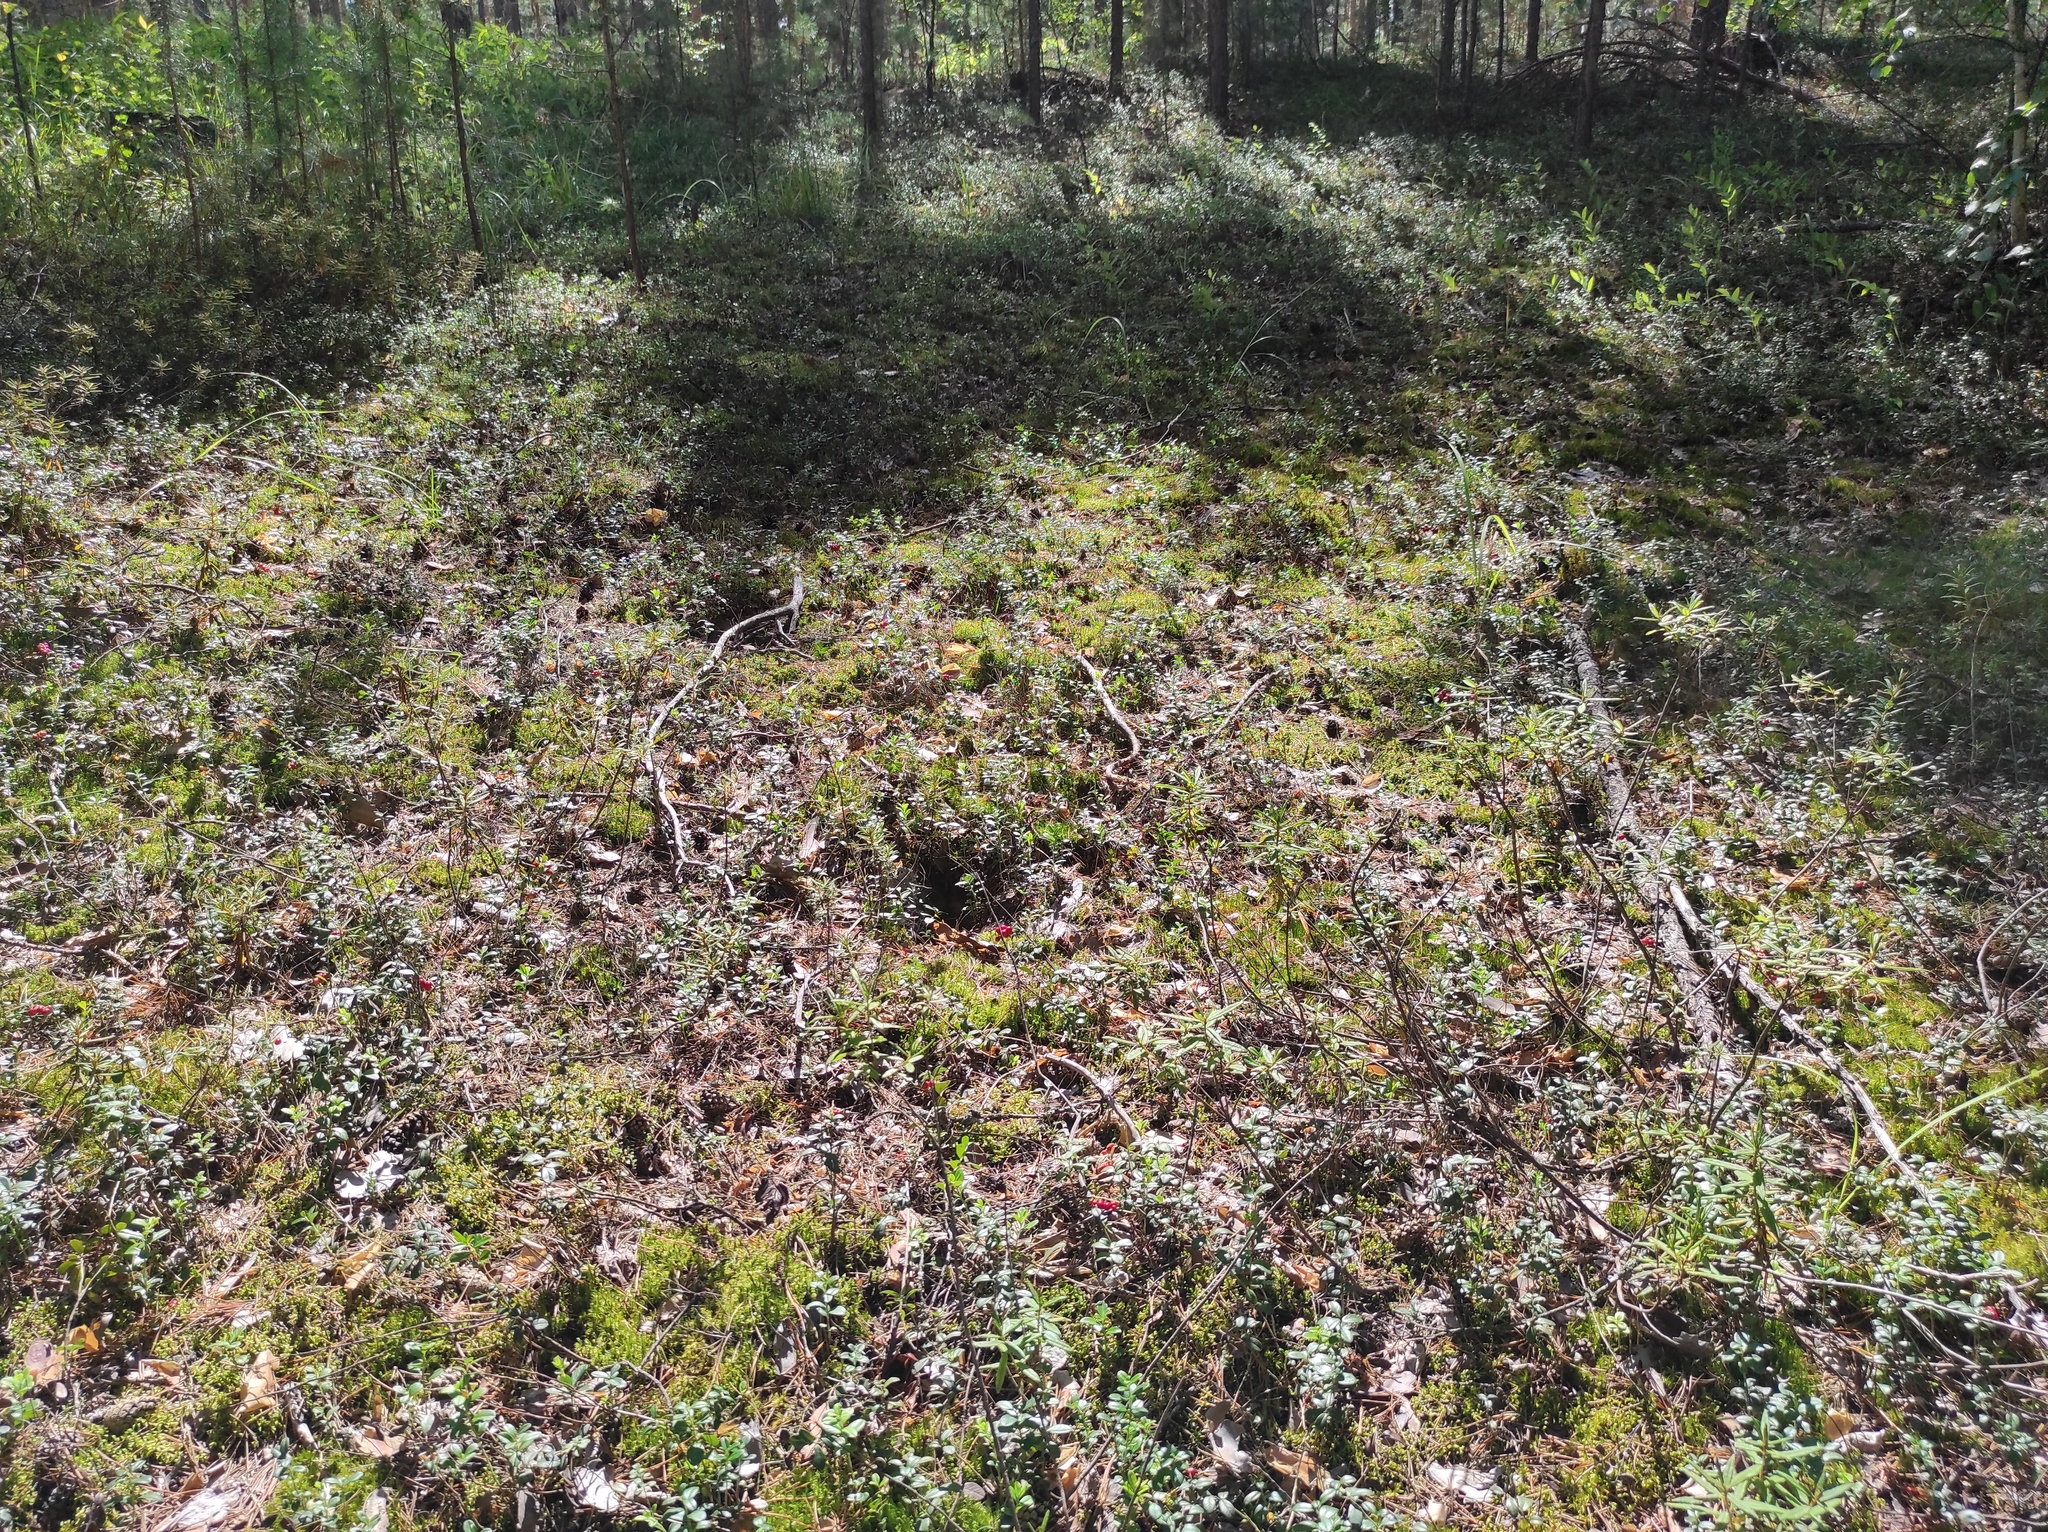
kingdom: Plantae
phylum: Tracheophyta
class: Magnoliopsida
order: Ericales
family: Ericaceae
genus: Vaccinium
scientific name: Vaccinium vitis-idaea
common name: Cowberry
